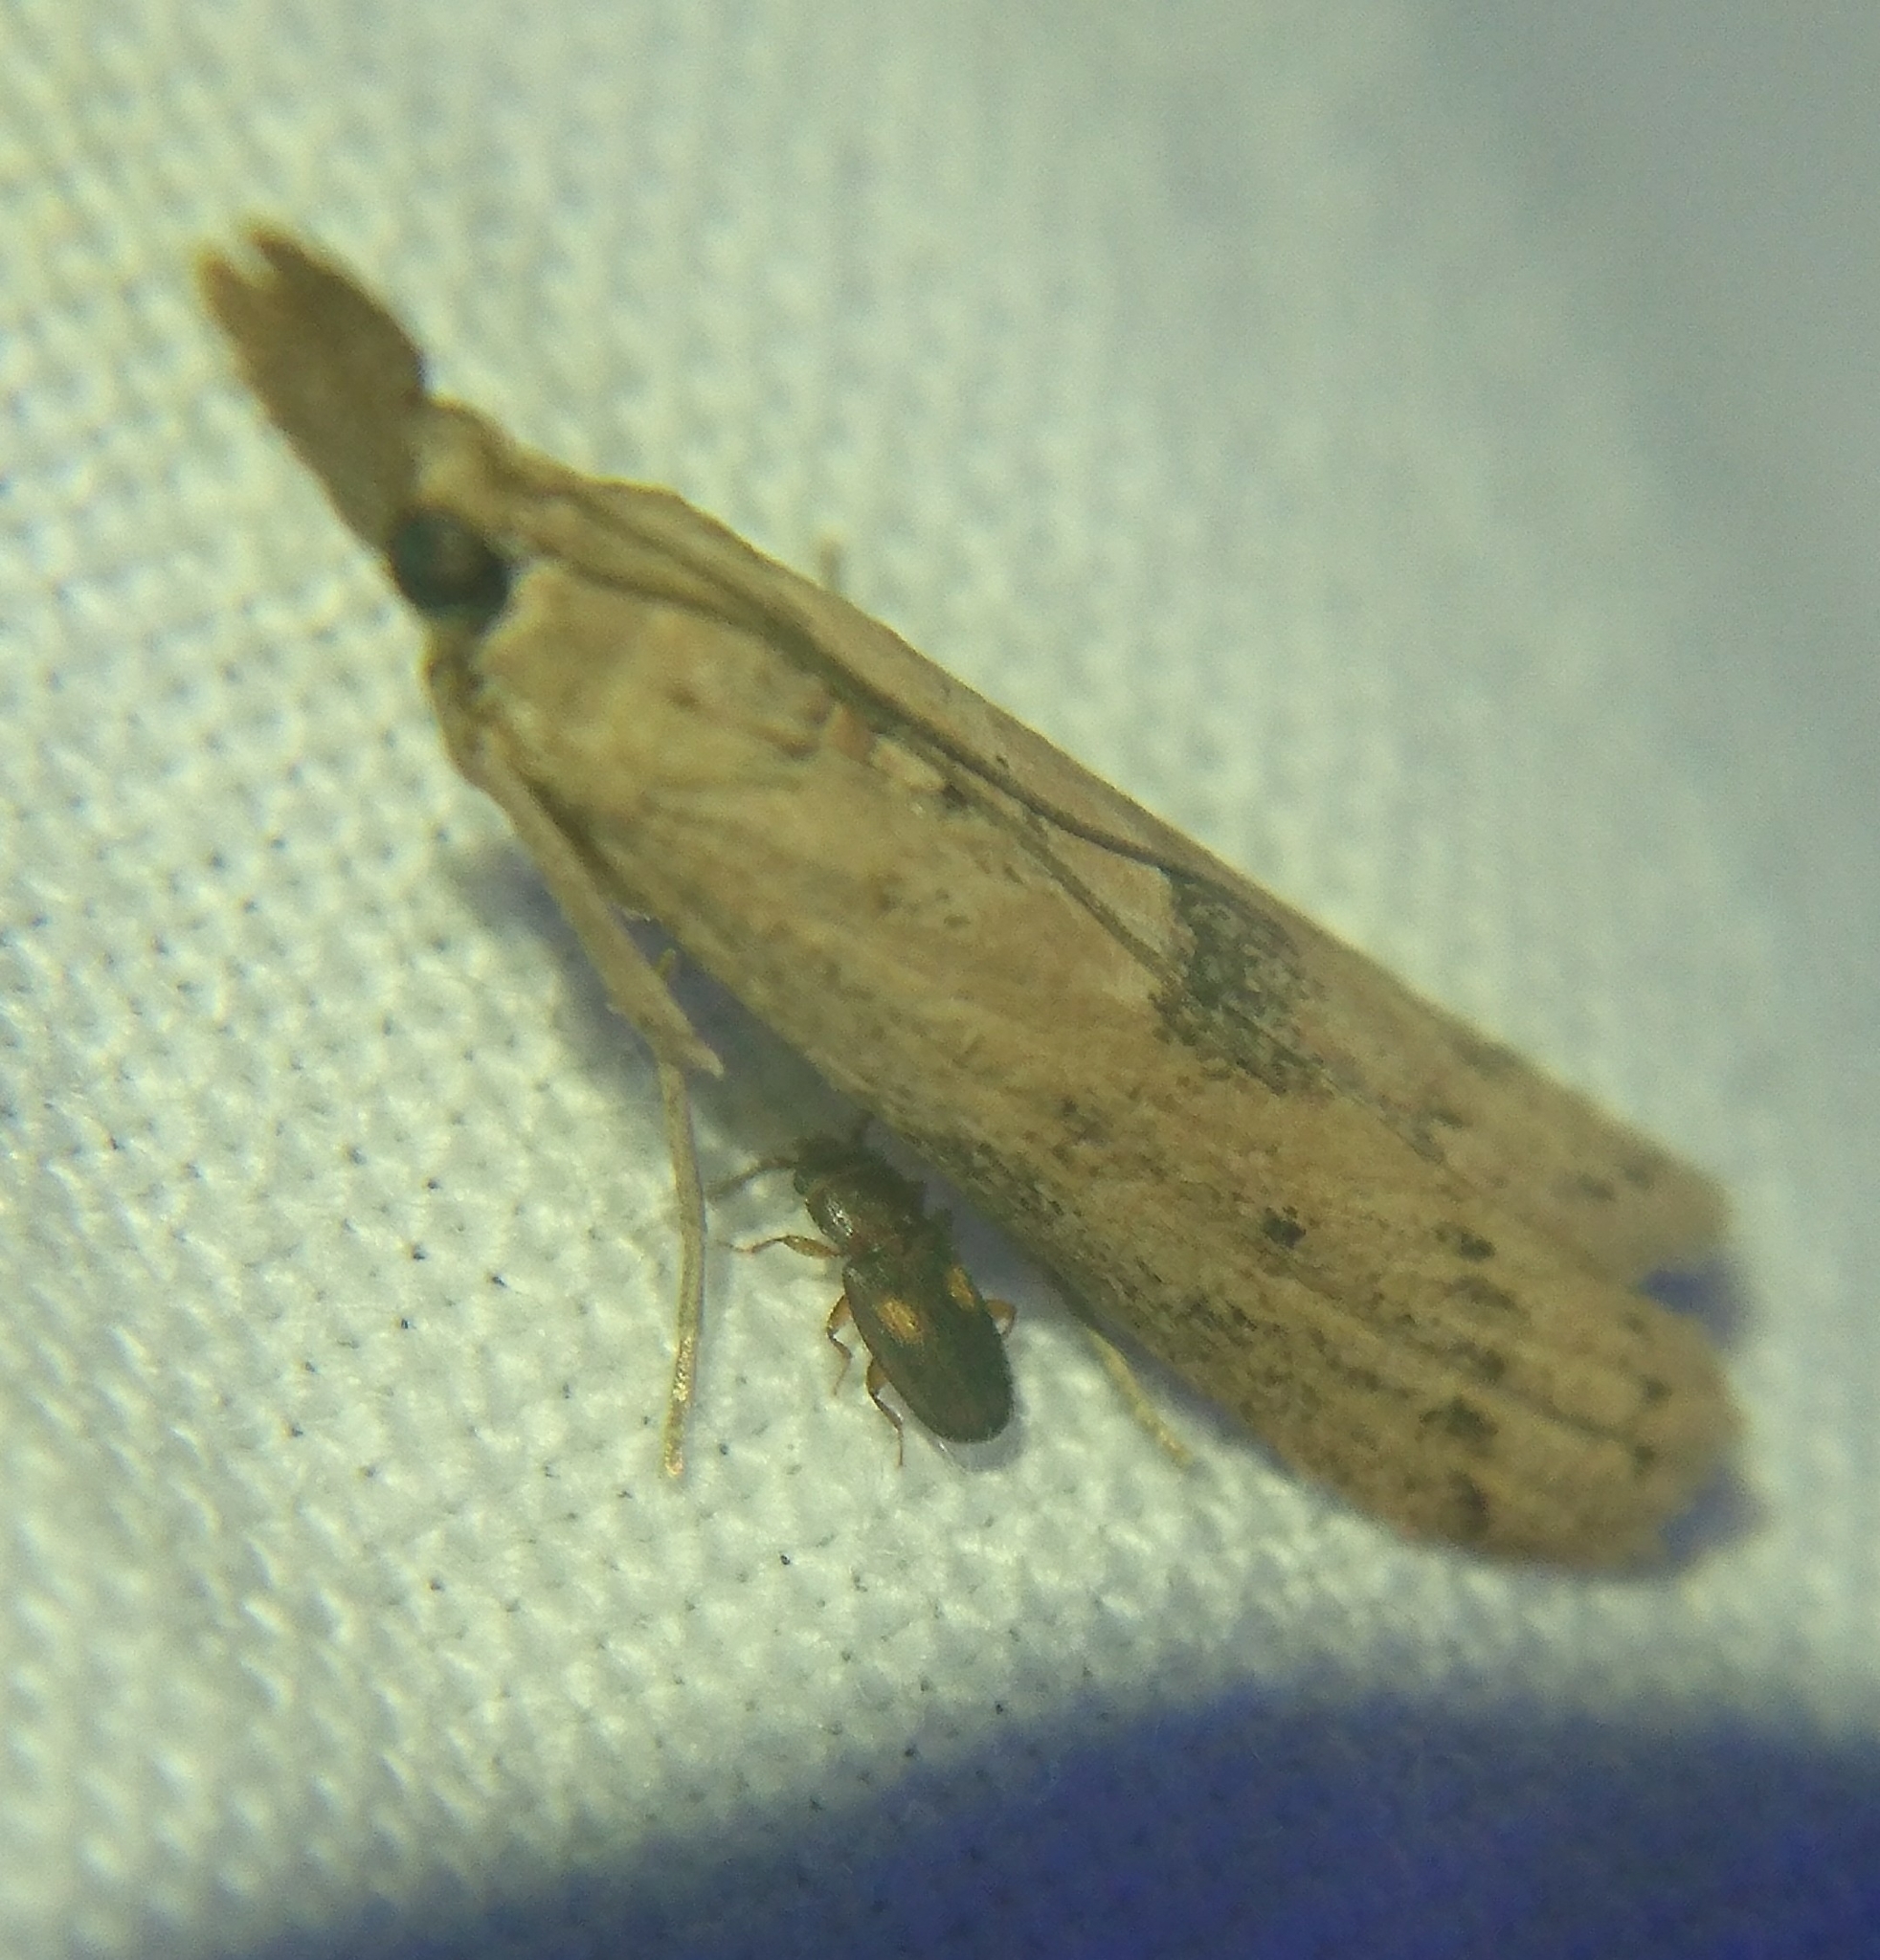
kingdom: Animalia
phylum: Arthropoda
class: Insecta
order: Lepidoptera
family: Pyralidae
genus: Macrorrhinia
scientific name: Macrorrhinia endonephele
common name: Alligator weed stemborer moth
